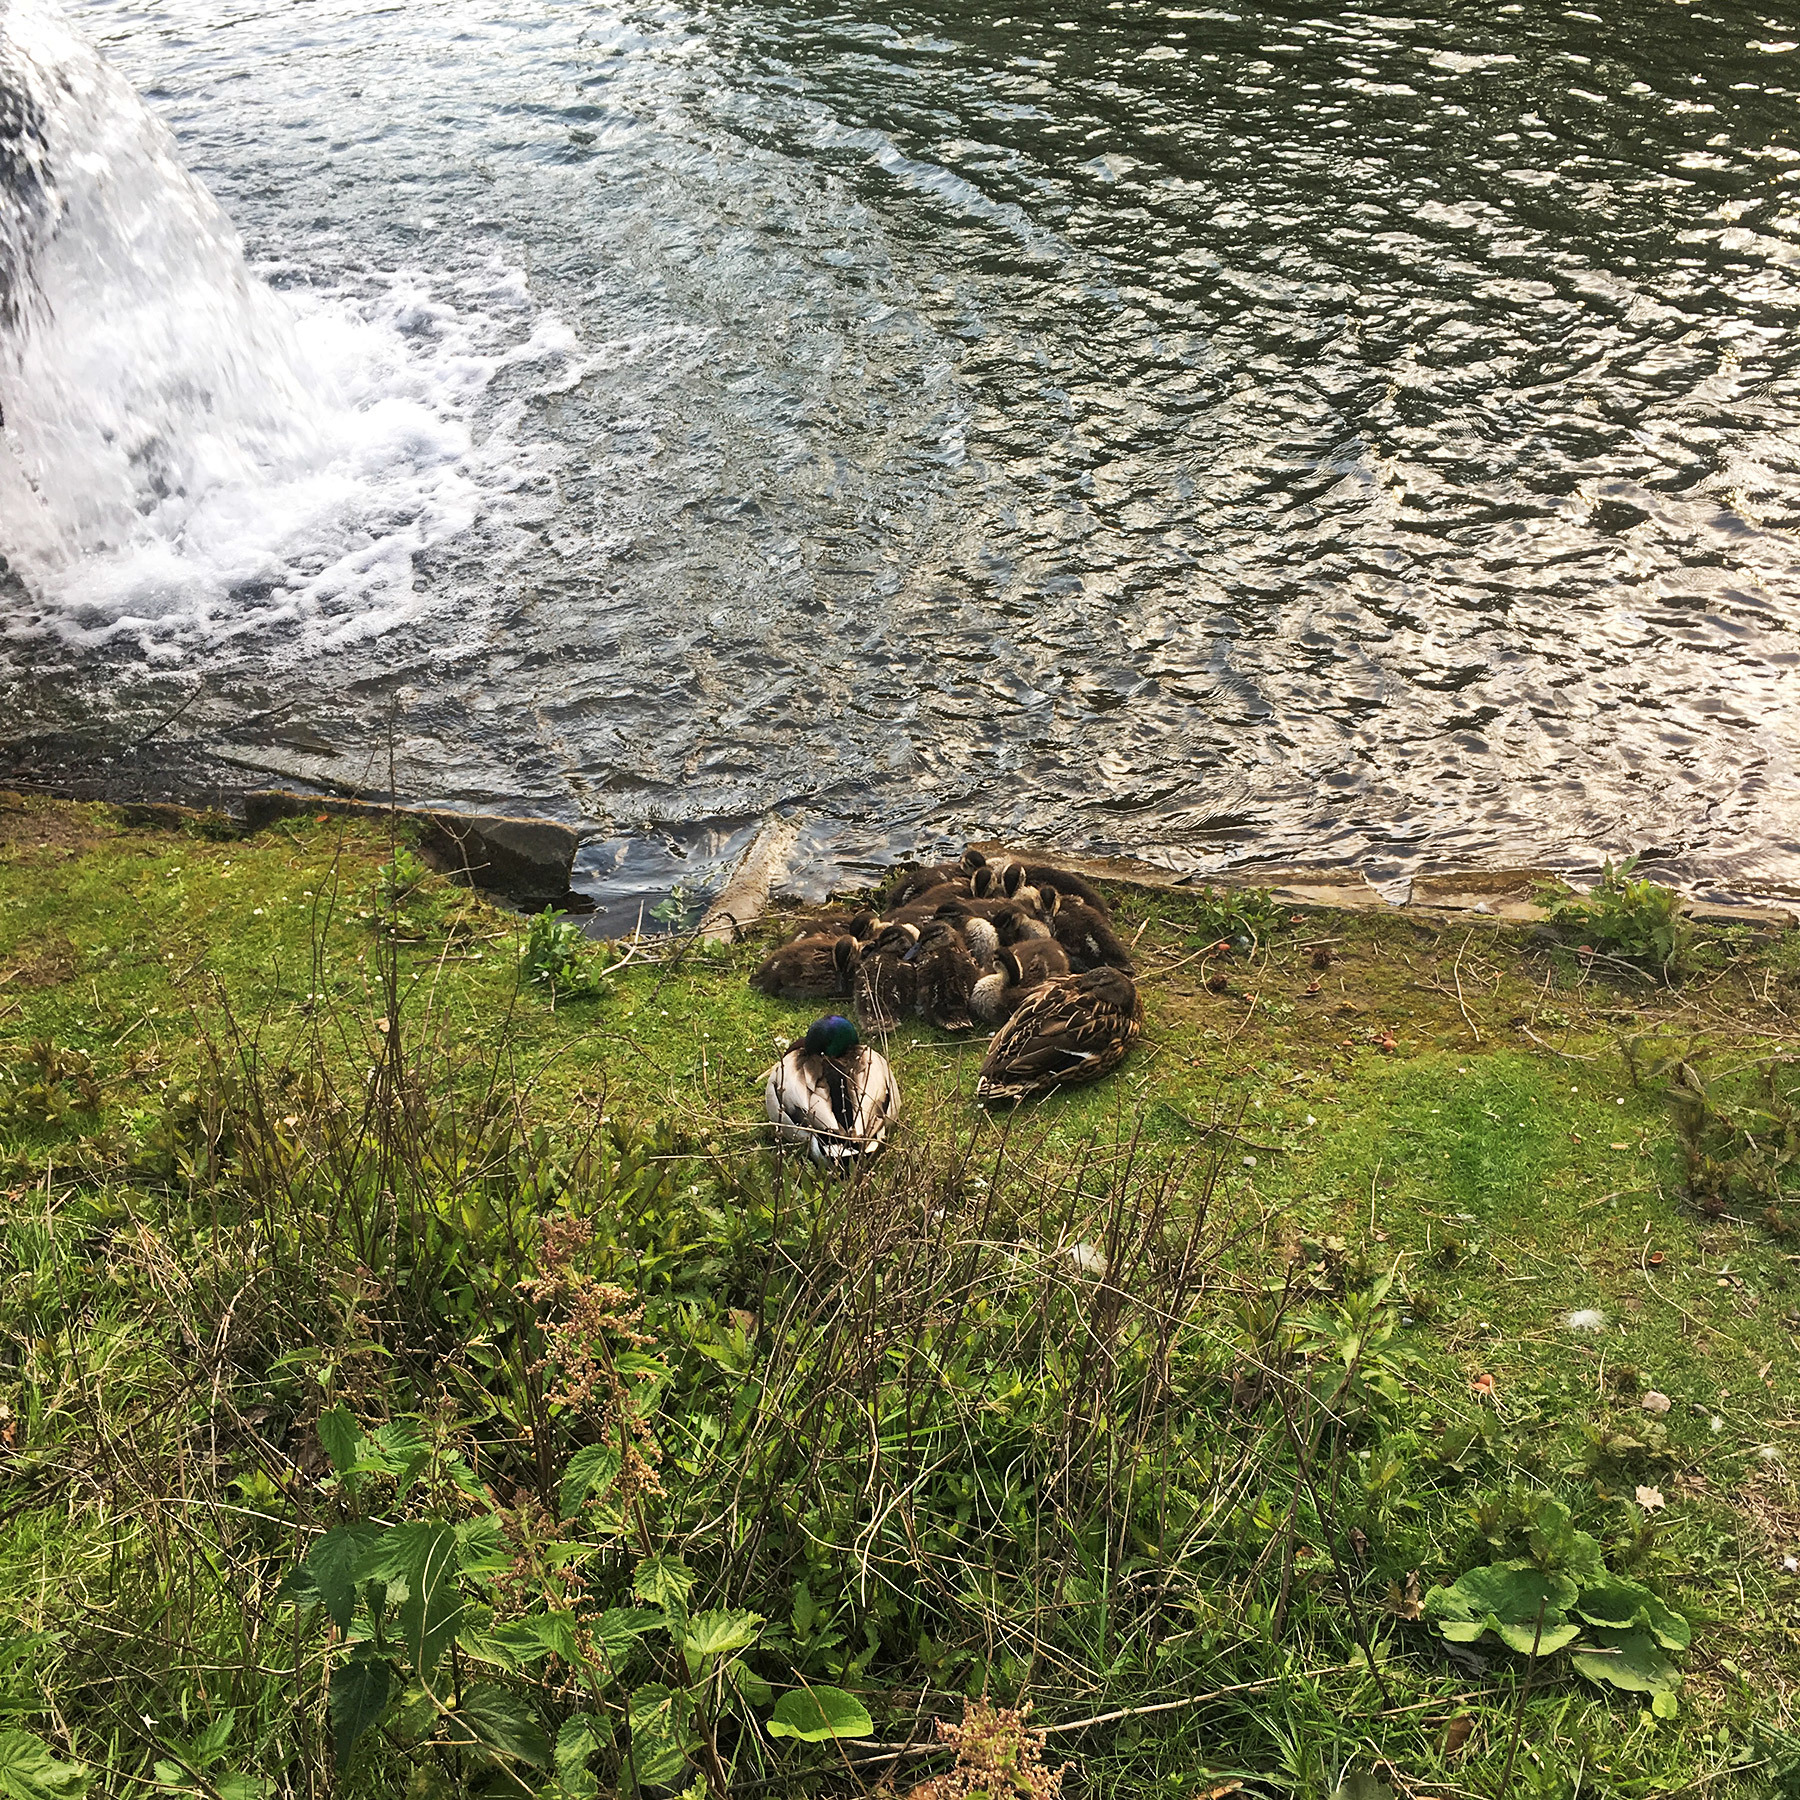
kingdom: Animalia
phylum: Chordata
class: Aves
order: Anseriformes
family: Anatidae
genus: Anas
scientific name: Anas platyrhynchos
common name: Mallard
